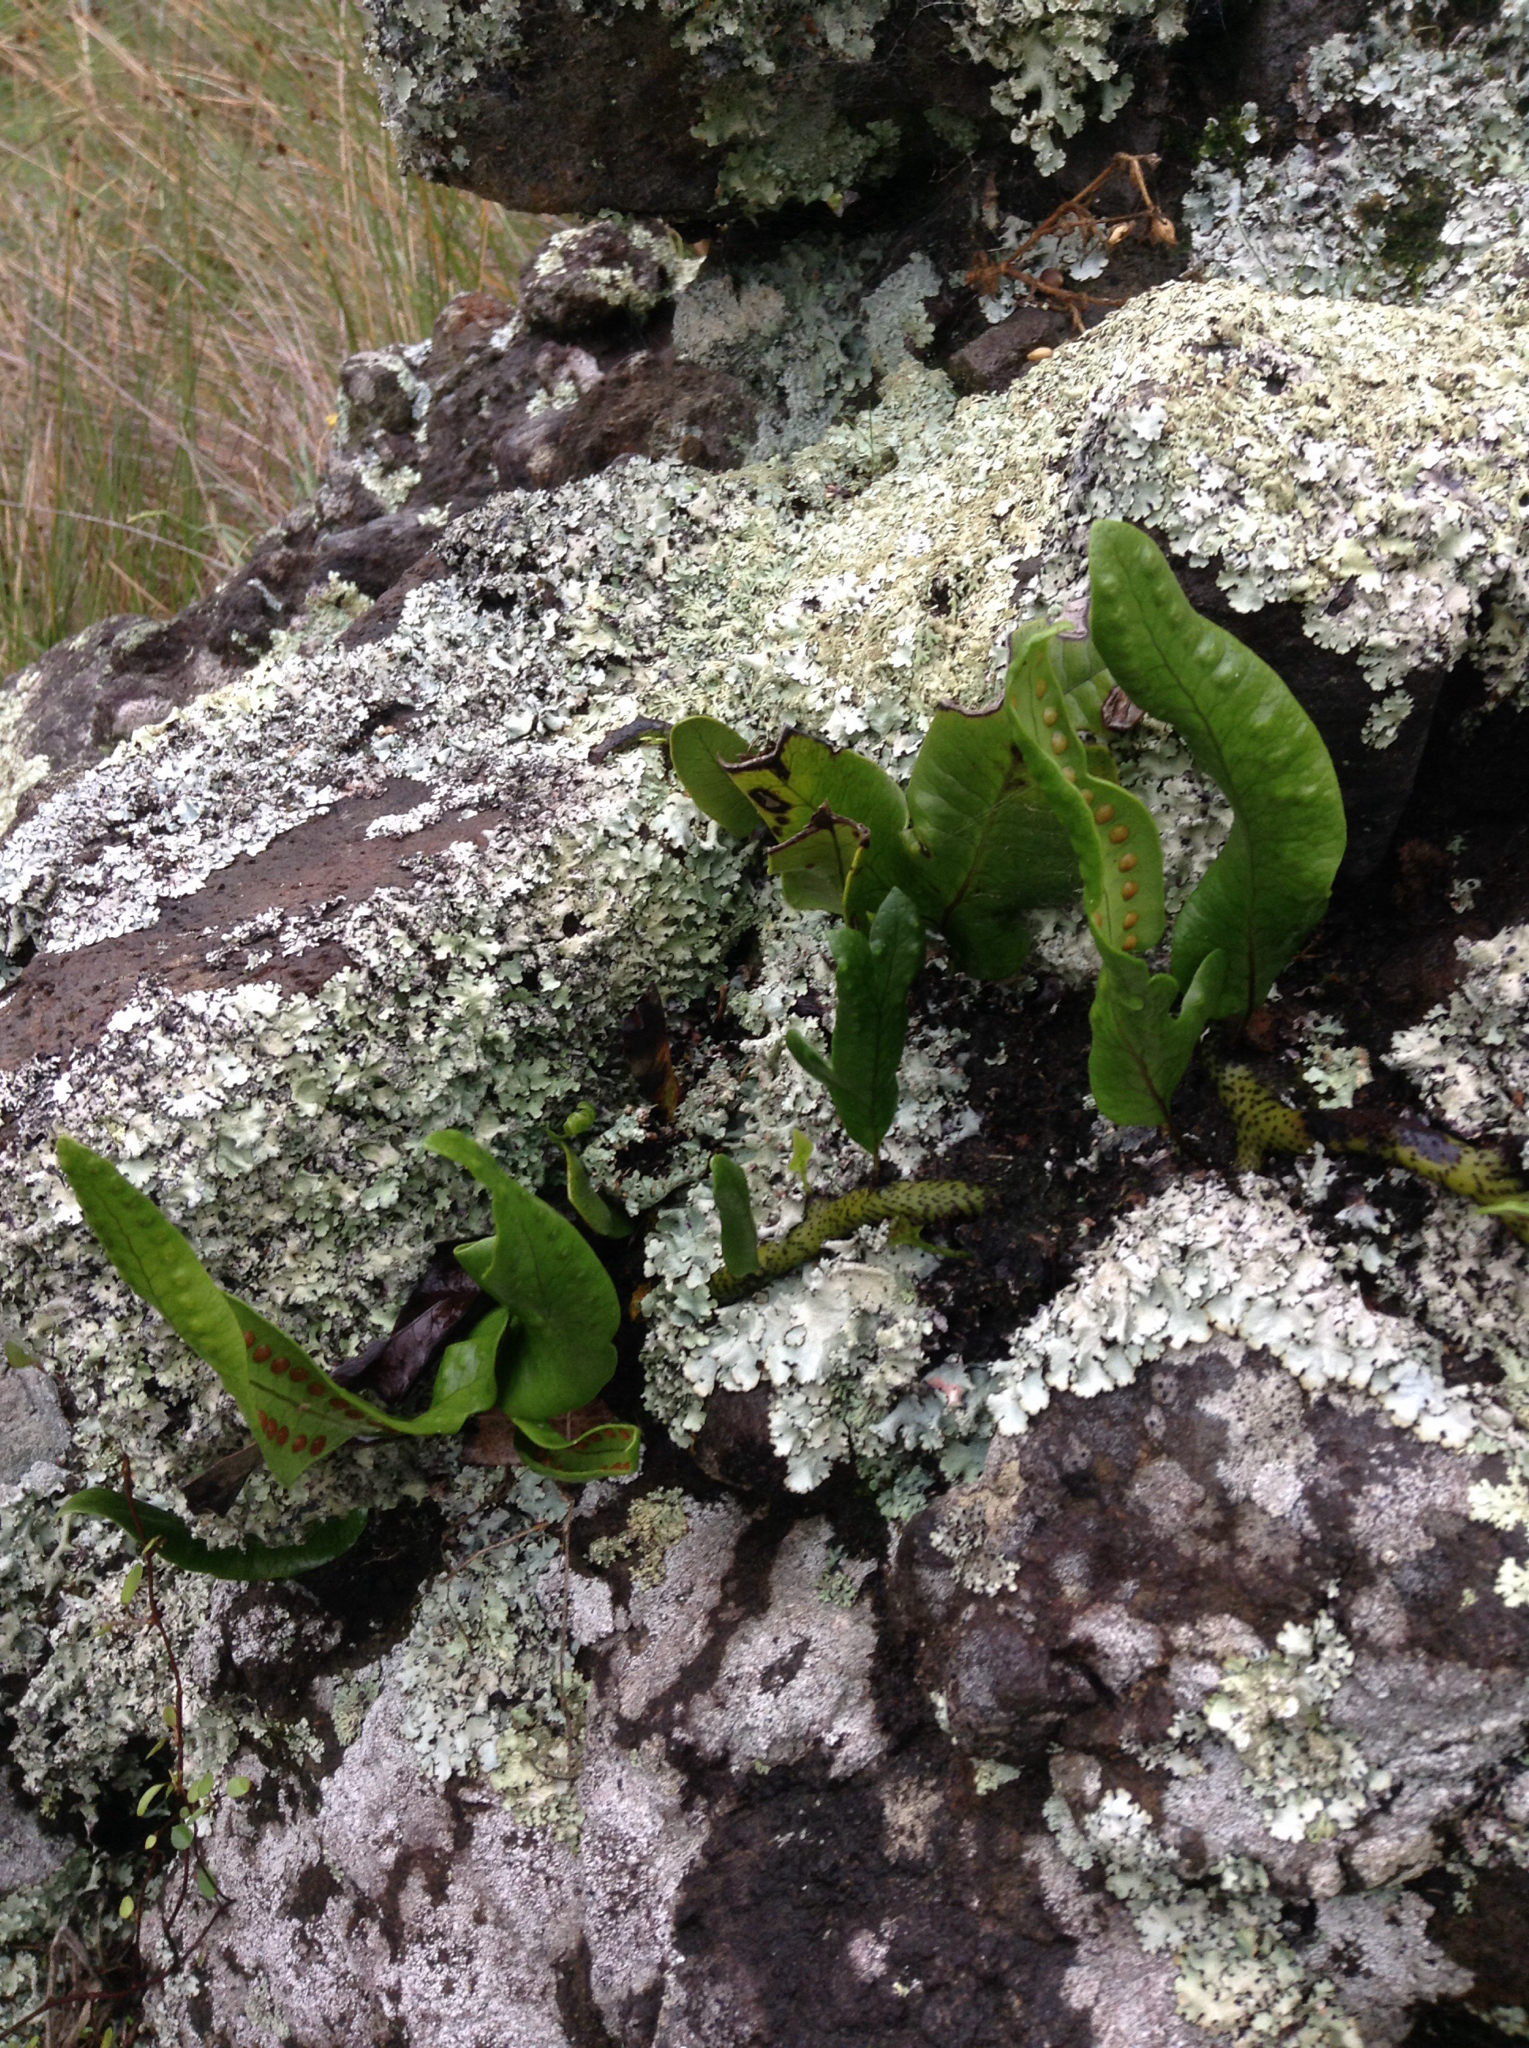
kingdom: Plantae
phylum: Tracheophyta
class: Polypodiopsida
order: Polypodiales
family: Polypodiaceae
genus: Lecanopteris
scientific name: Lecanopteris pustulata
